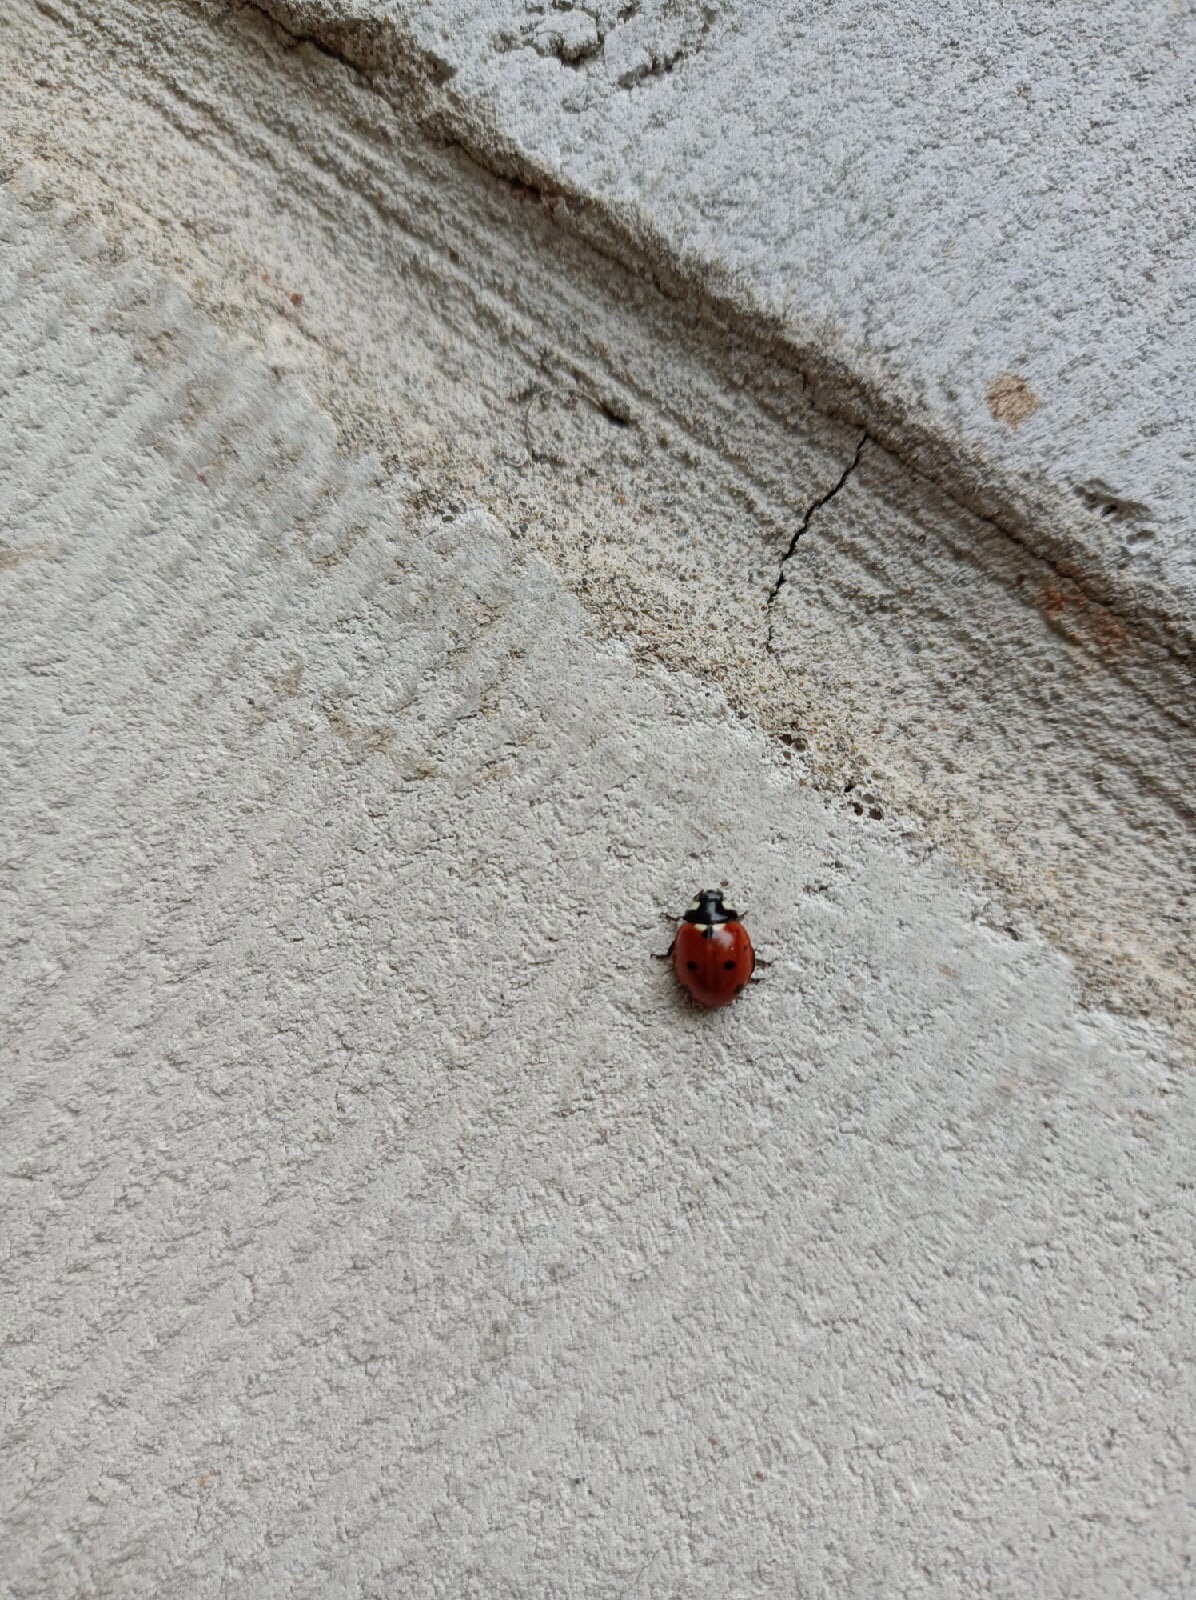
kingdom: Animalia
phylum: Arthropoda
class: Insecta
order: Coleoptera
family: Coccinellidae
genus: Coccinella
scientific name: Coccinella septempunctata
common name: Sevenspotted lady beetle
